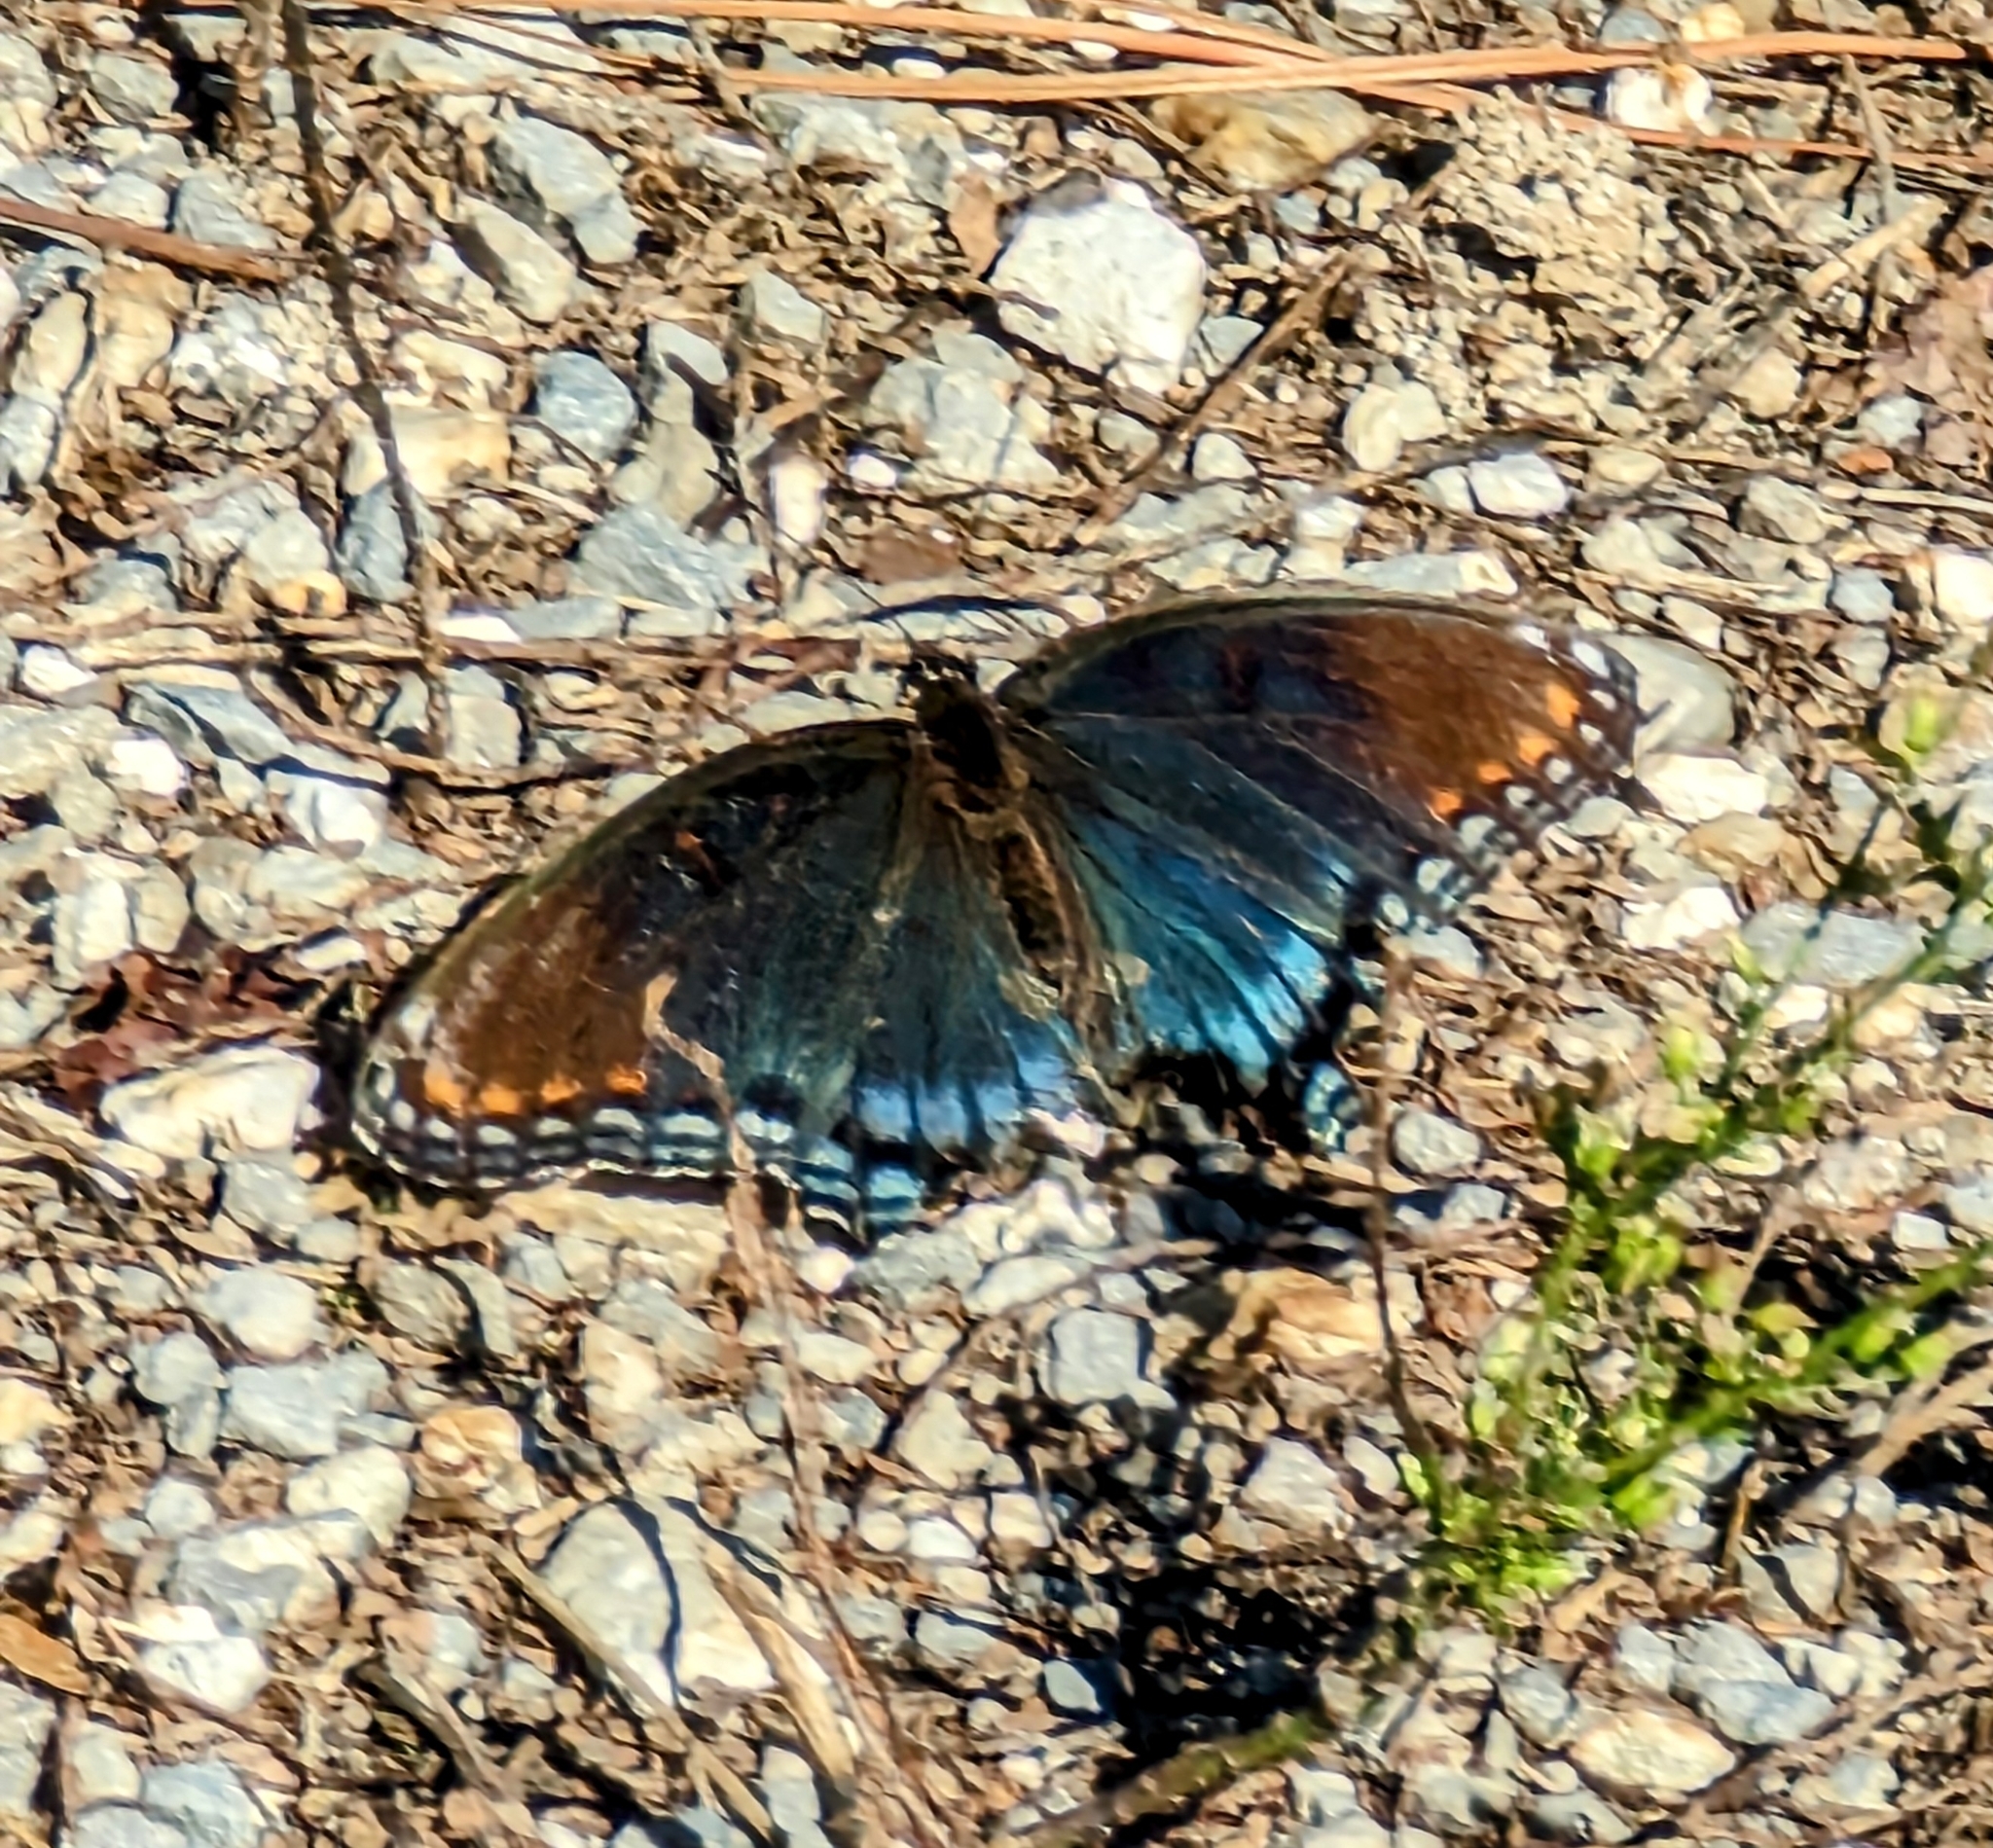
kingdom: Animalia
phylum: Arthropoda
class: Insecta
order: Lepidoptera
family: Nymphalidae
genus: Limenitis
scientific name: Limenitis astyanax
